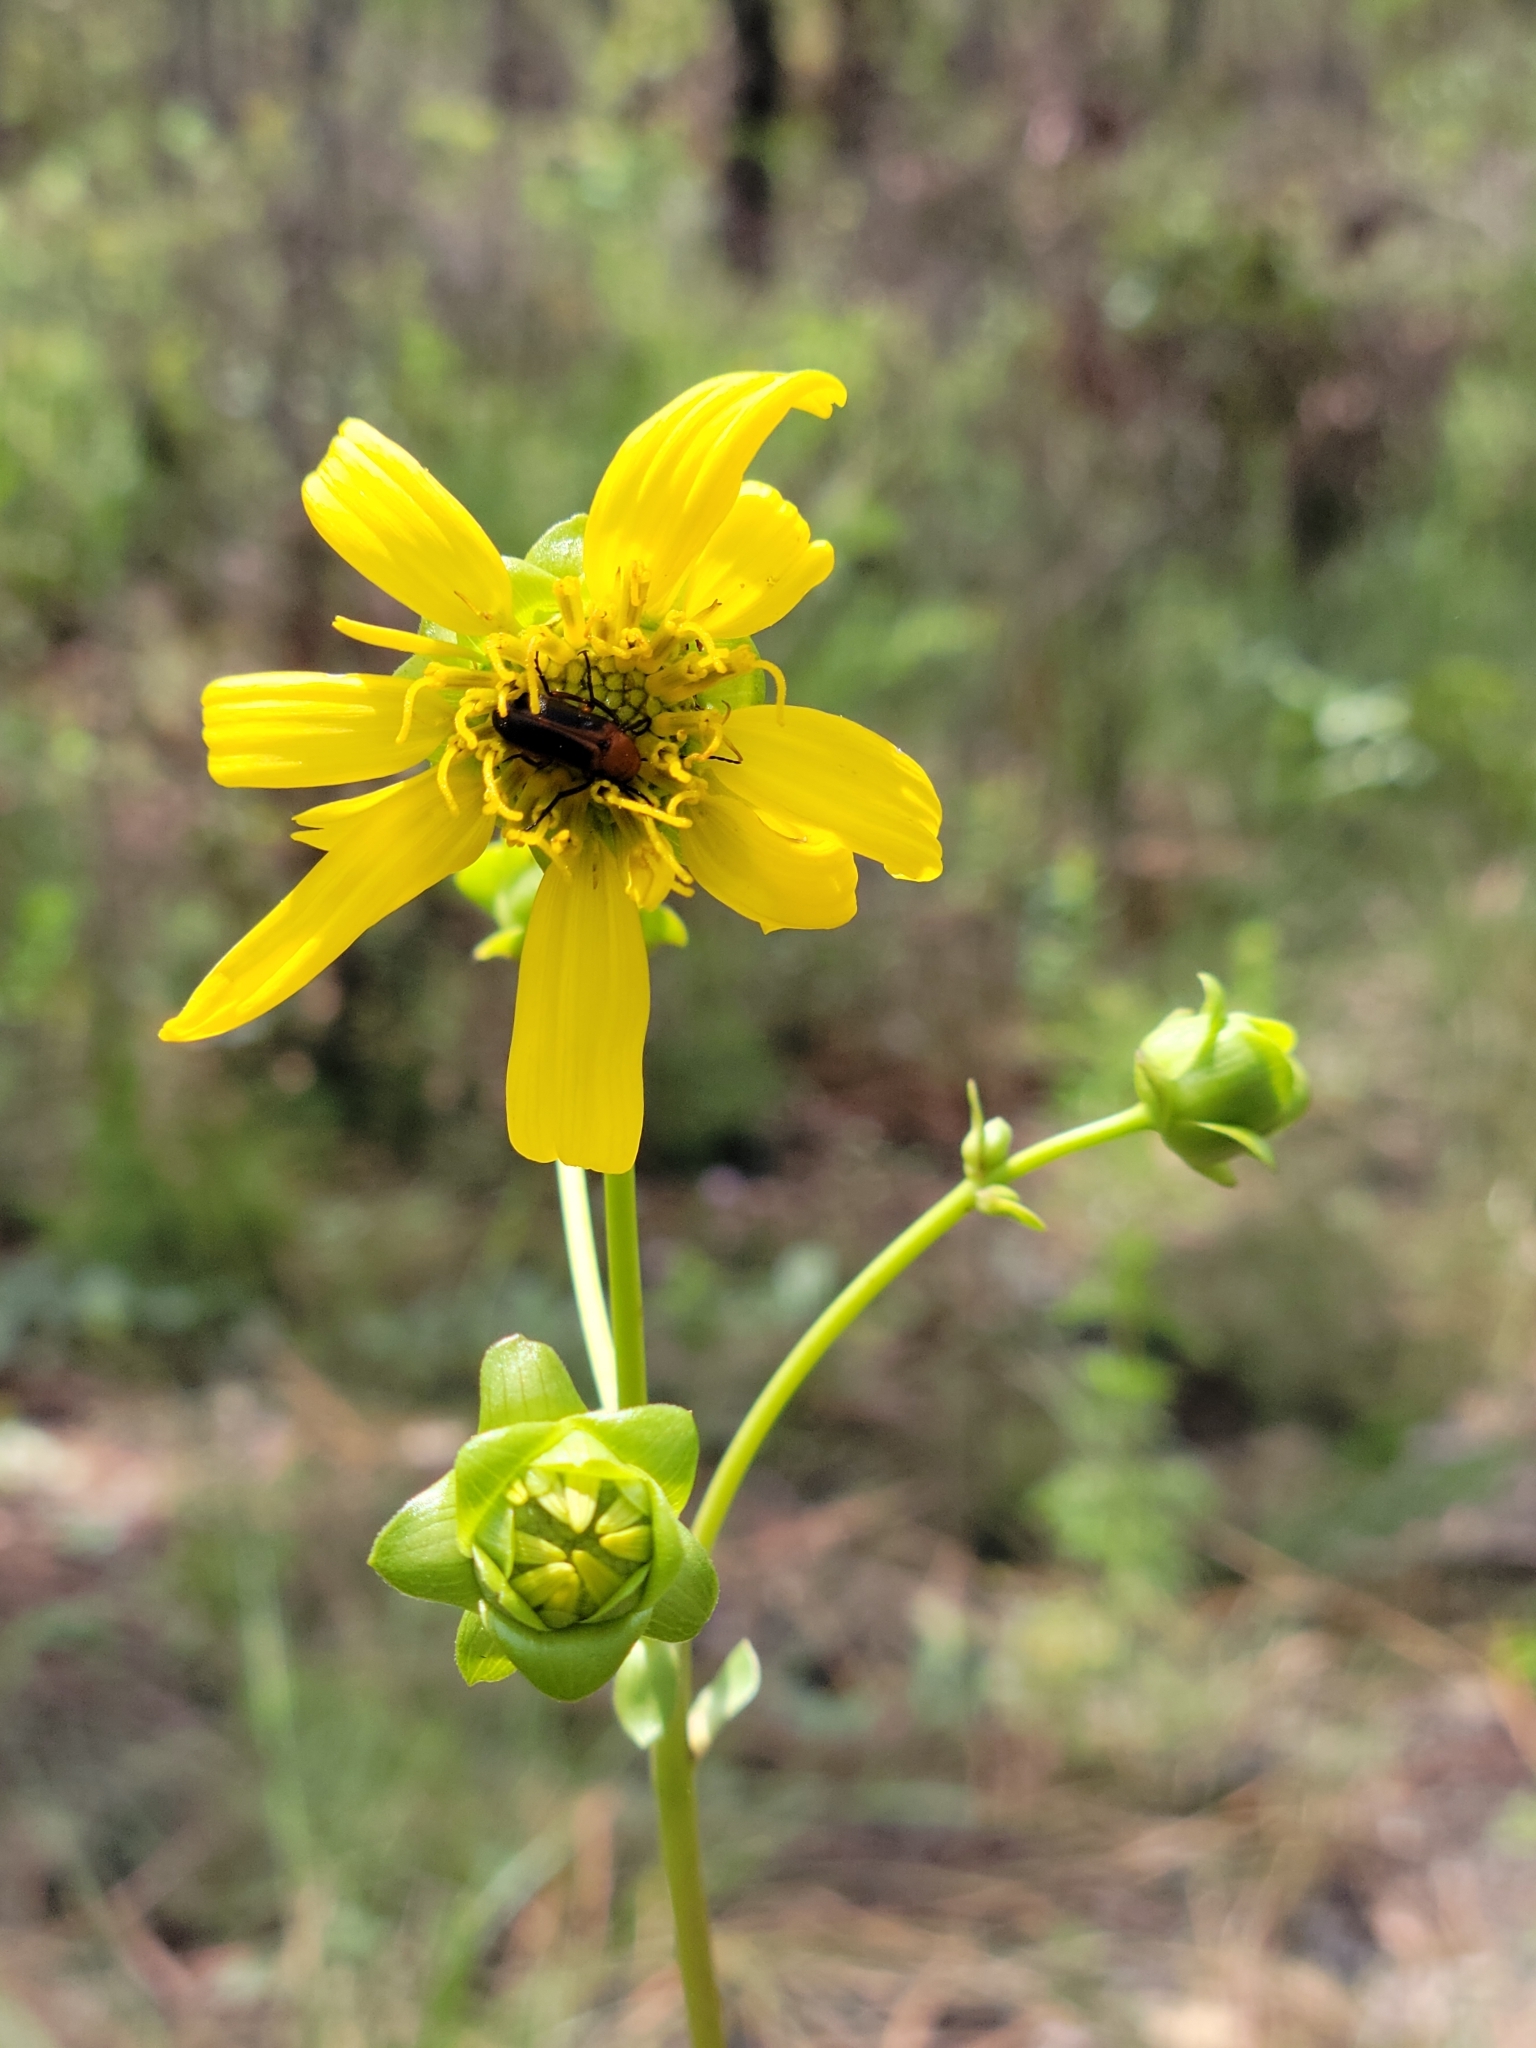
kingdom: Plantae
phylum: Tracheophyta
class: Magnoliopsida
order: Asterales
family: Asteraceae
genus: Silphium
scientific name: Silphium compositum
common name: Lesser basal-leaf rosinweed
